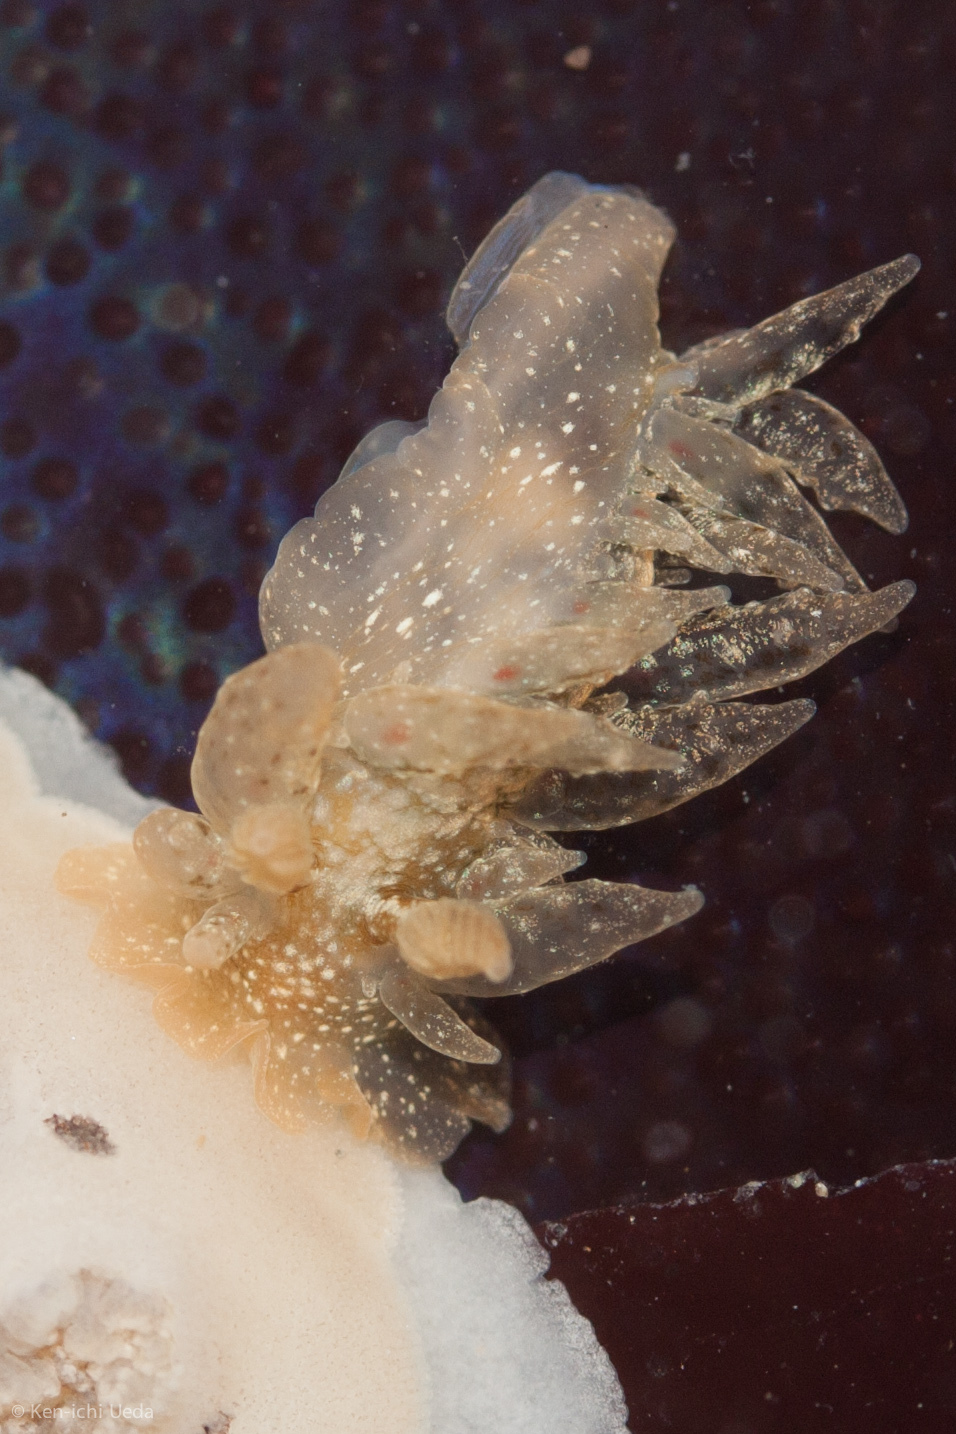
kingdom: Animalia
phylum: Mollusca
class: Gastropoda
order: Nudibranchia
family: Dironidae
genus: Dirona
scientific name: Dirona picta
